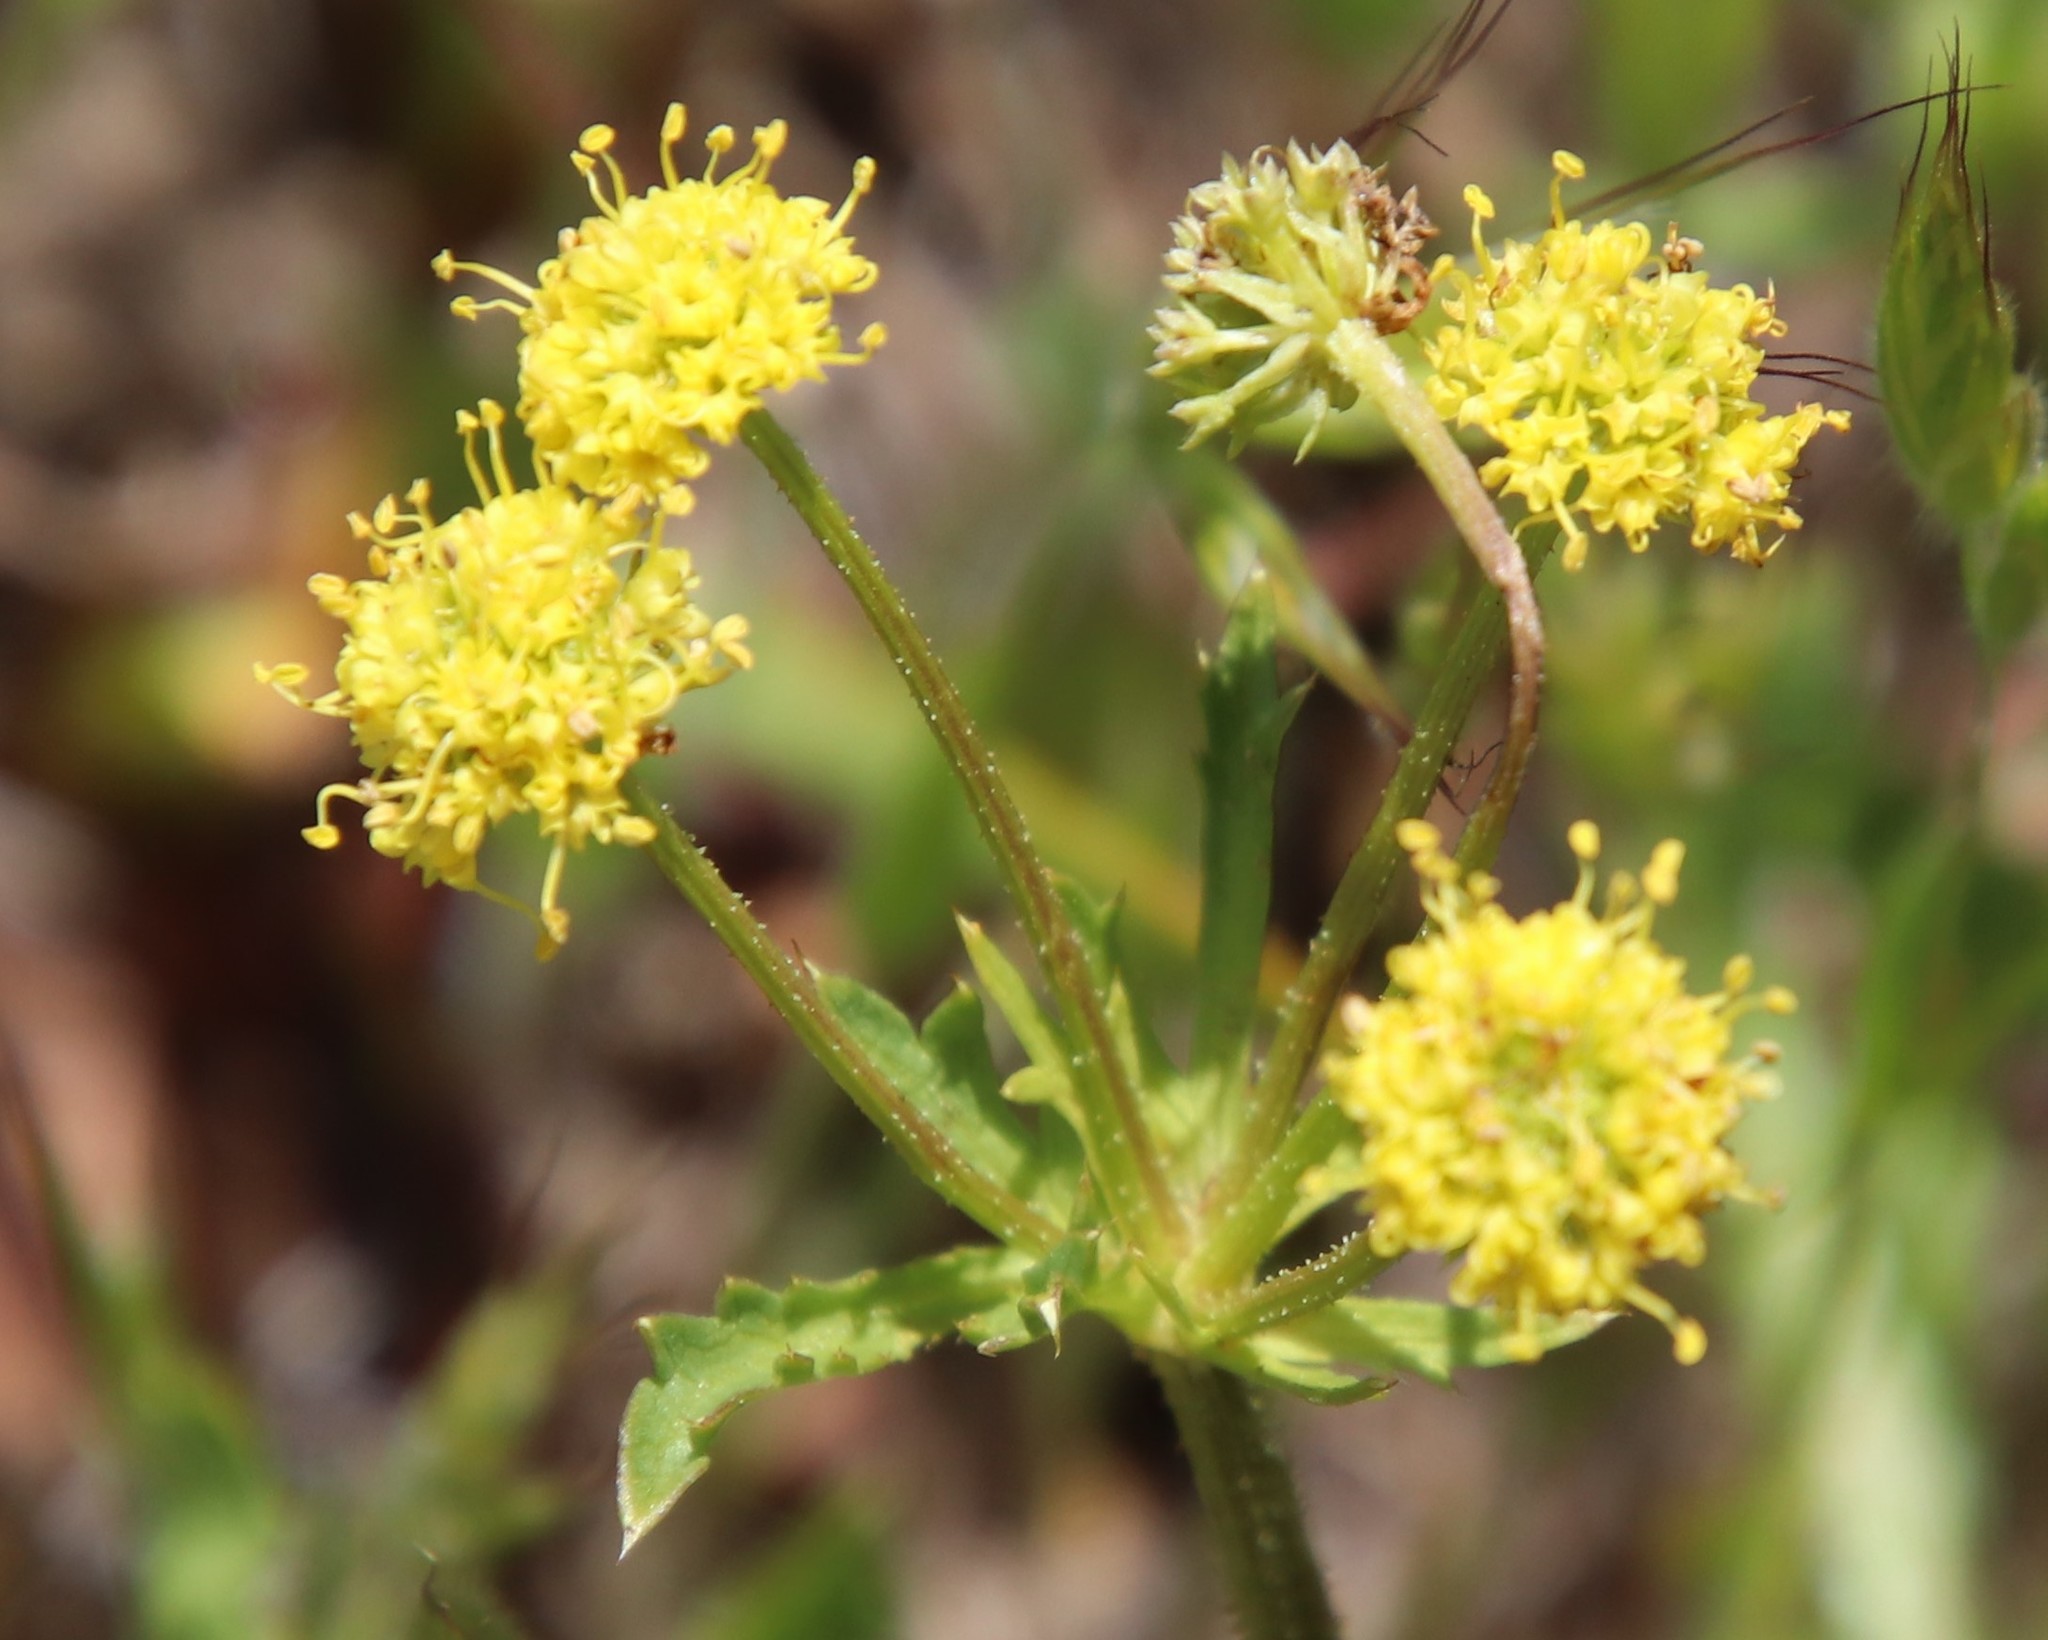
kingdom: Plantae
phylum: Tracheophyta
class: Magnoliopsida
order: Apiales
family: Apiaceae
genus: Sanicula
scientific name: Sanicula arguta
